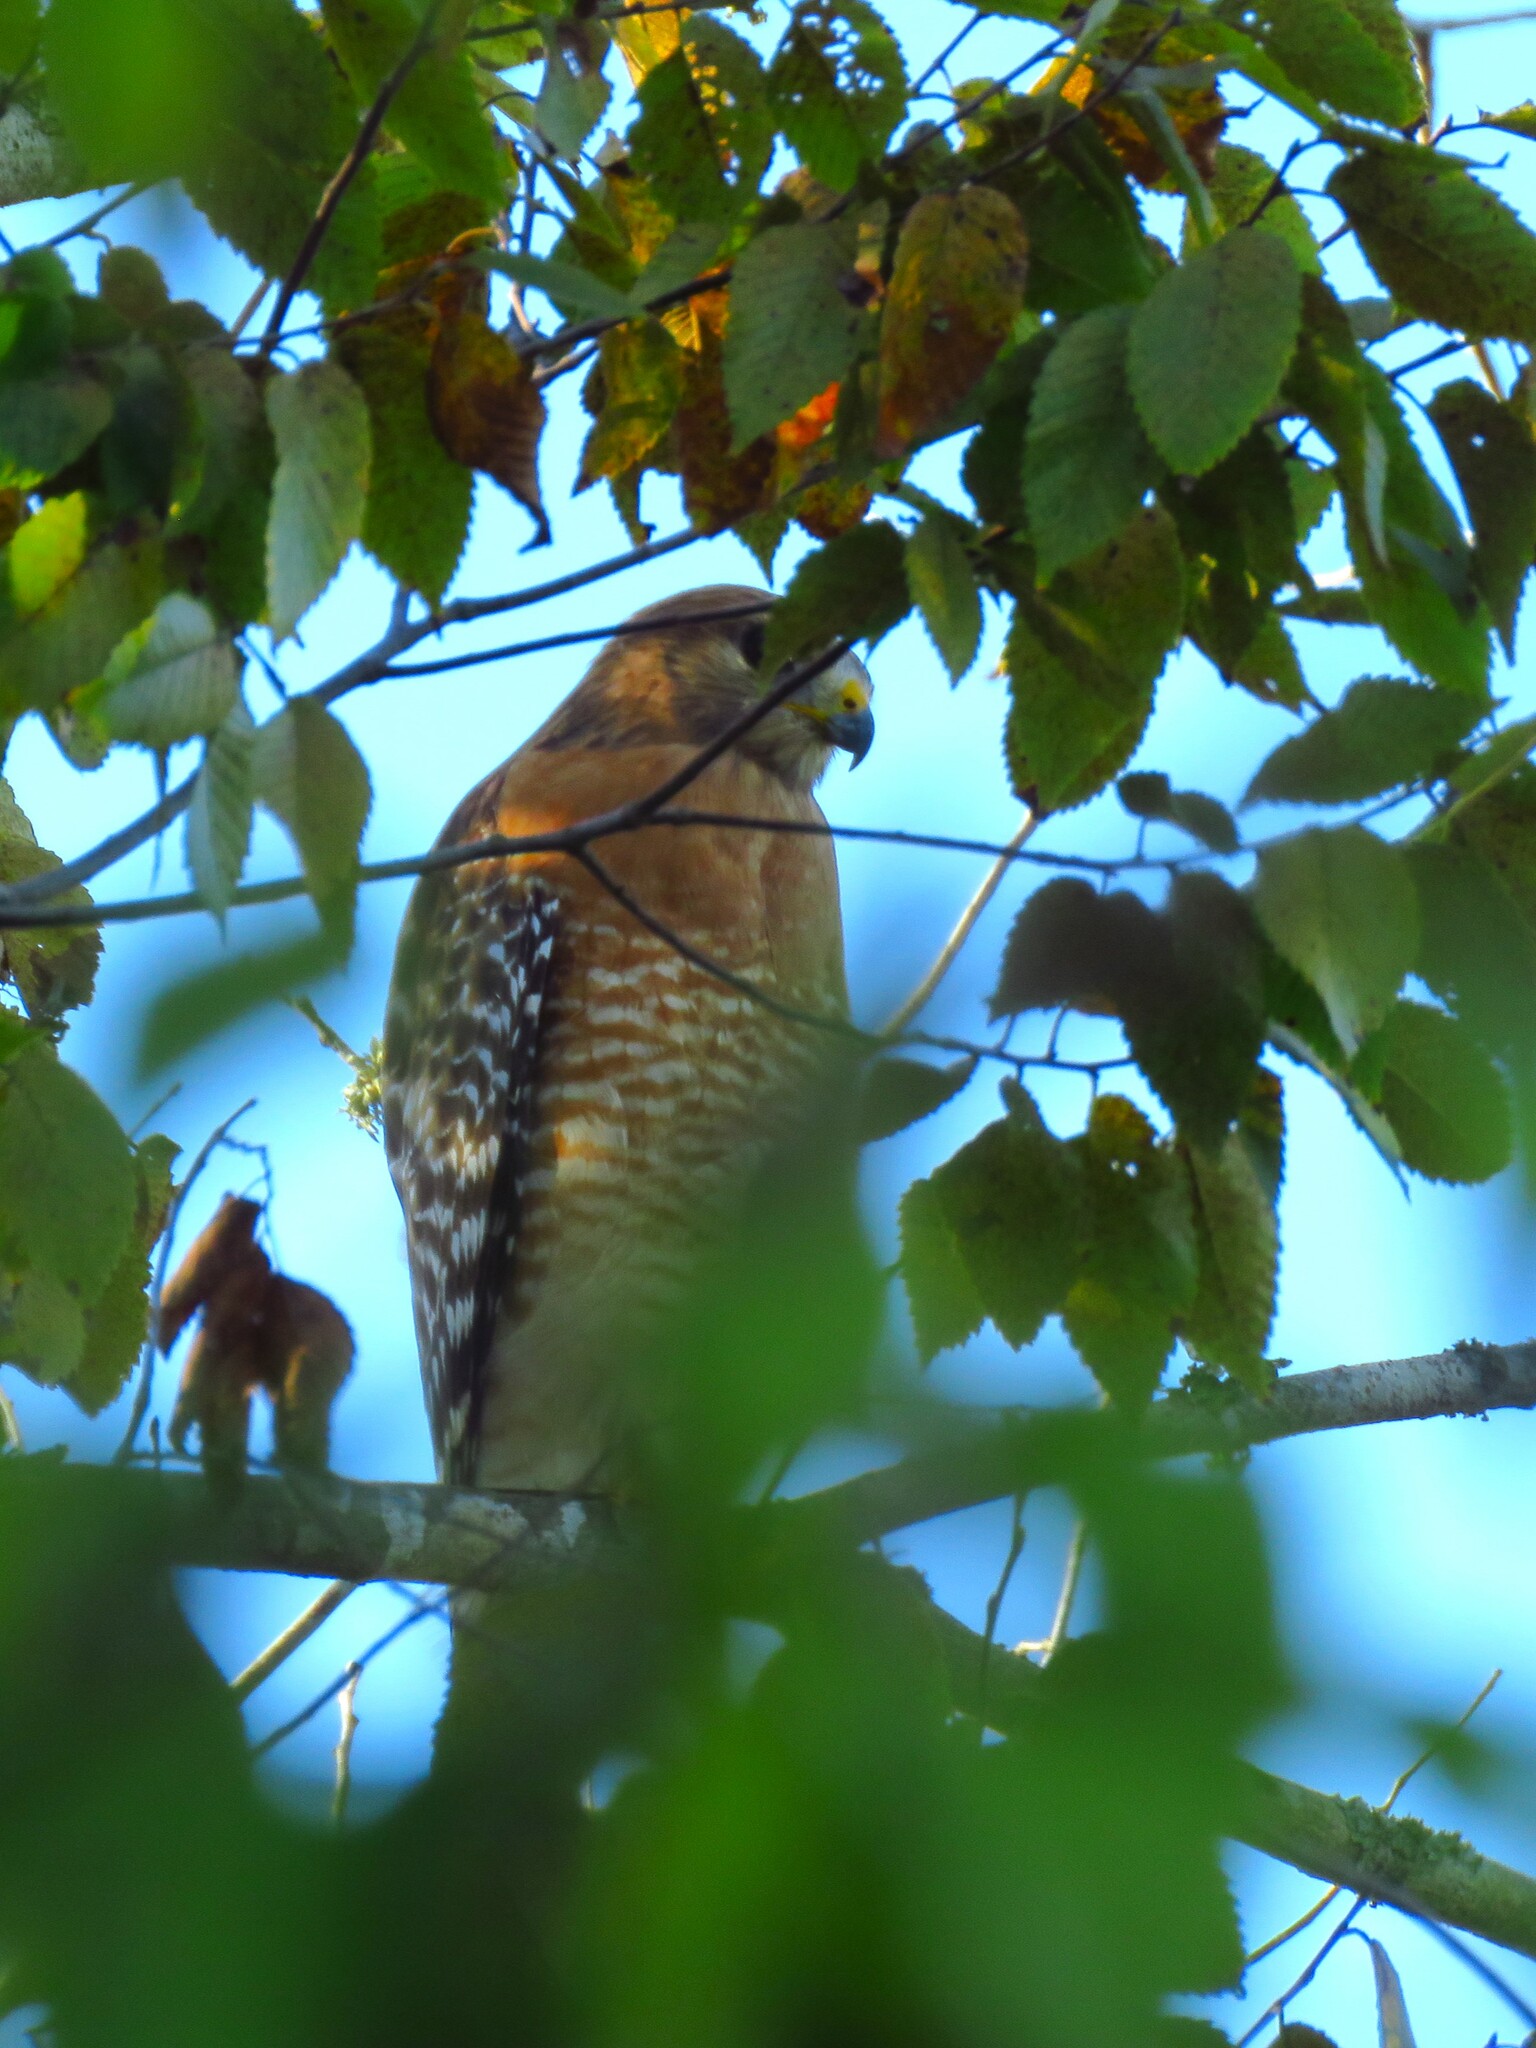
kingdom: Animalia
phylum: Chordata
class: Aves
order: Accipitriformes
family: Accipitridae
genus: Buteo
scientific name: Buteo lineatus
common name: Red-shouldered hawk
